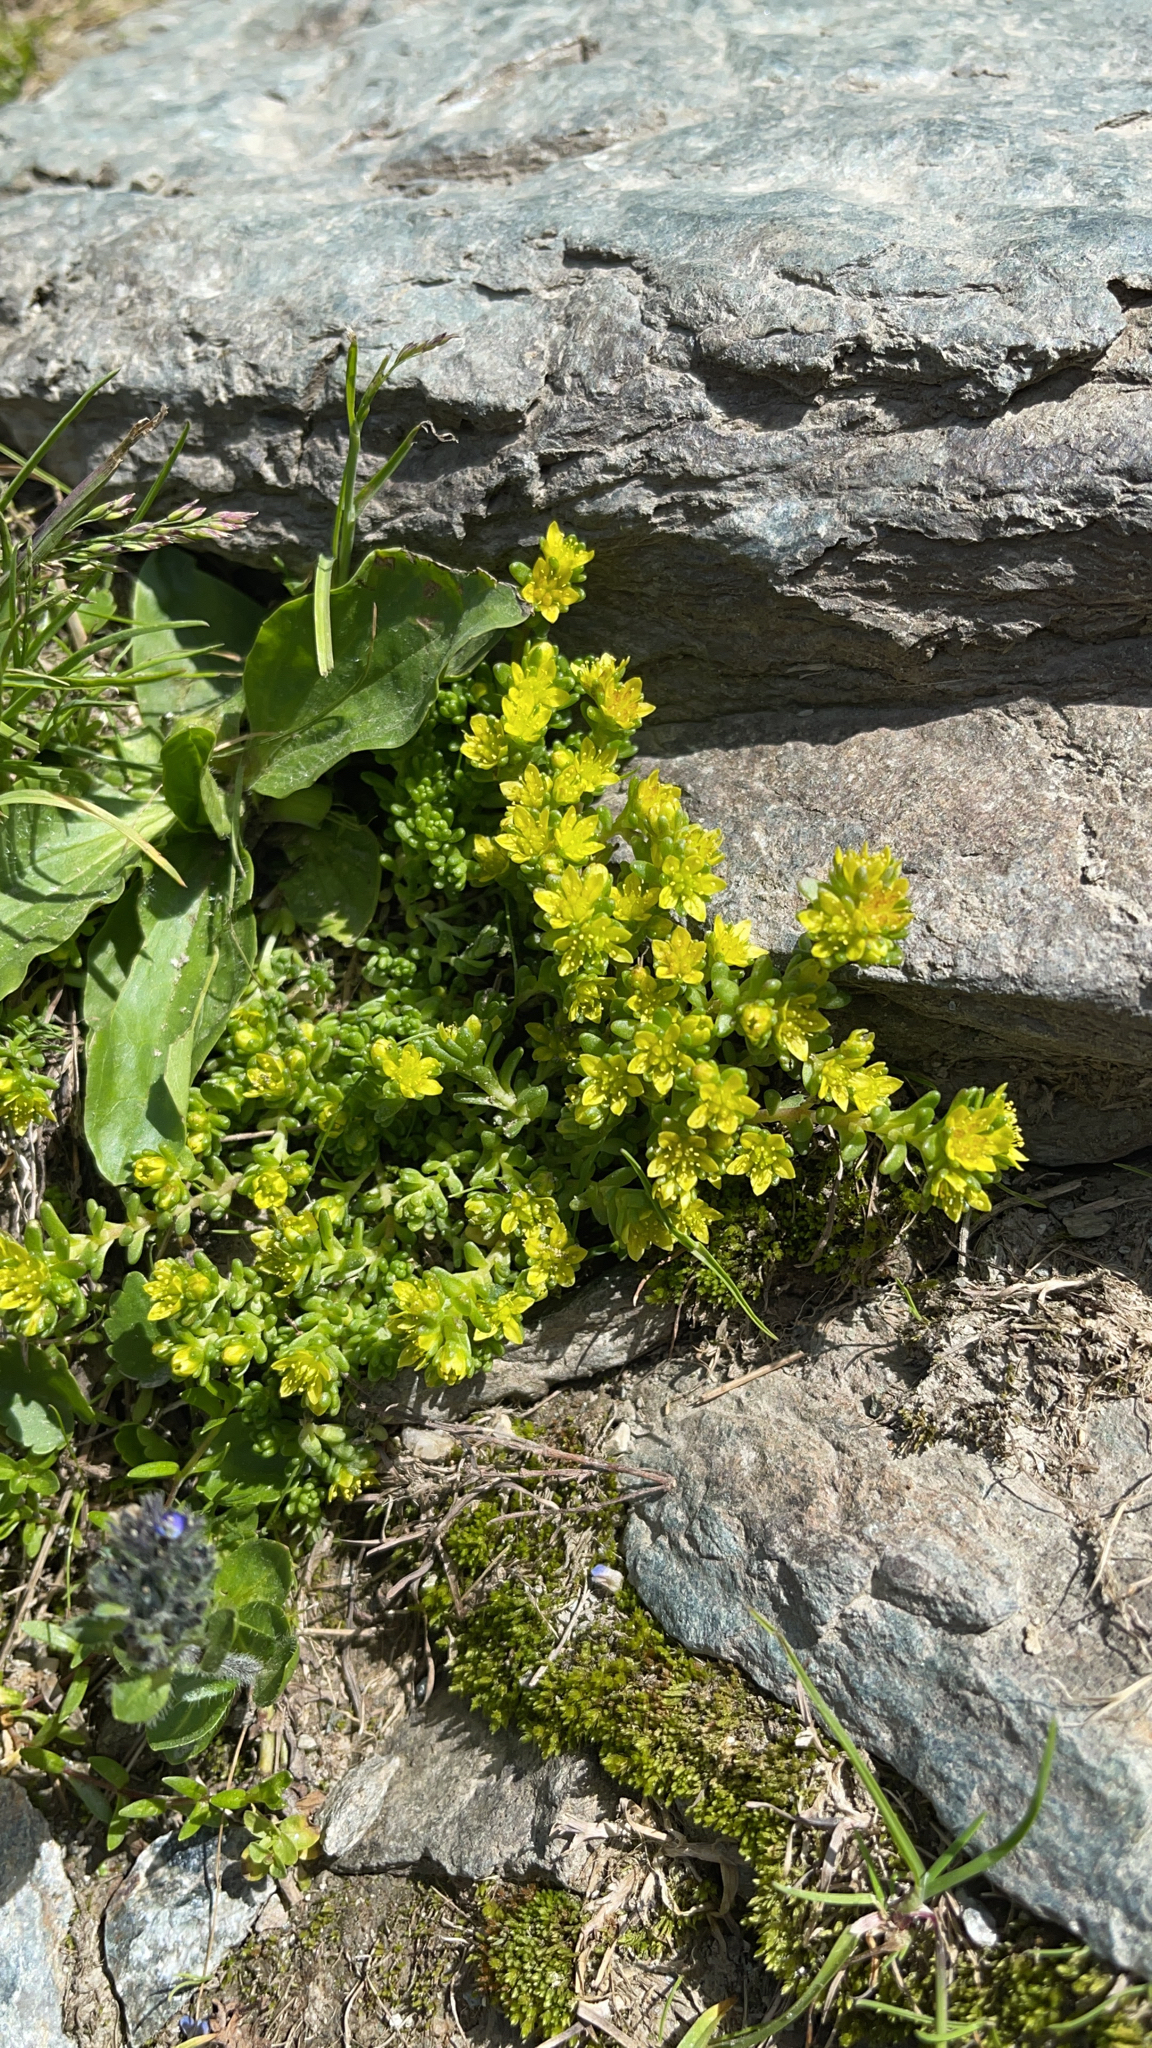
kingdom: Plantae
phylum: Tracheophyta
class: Magnoliopsida
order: Saxifragales
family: Crassulaceae
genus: Sedum
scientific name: Sedum alpestre
